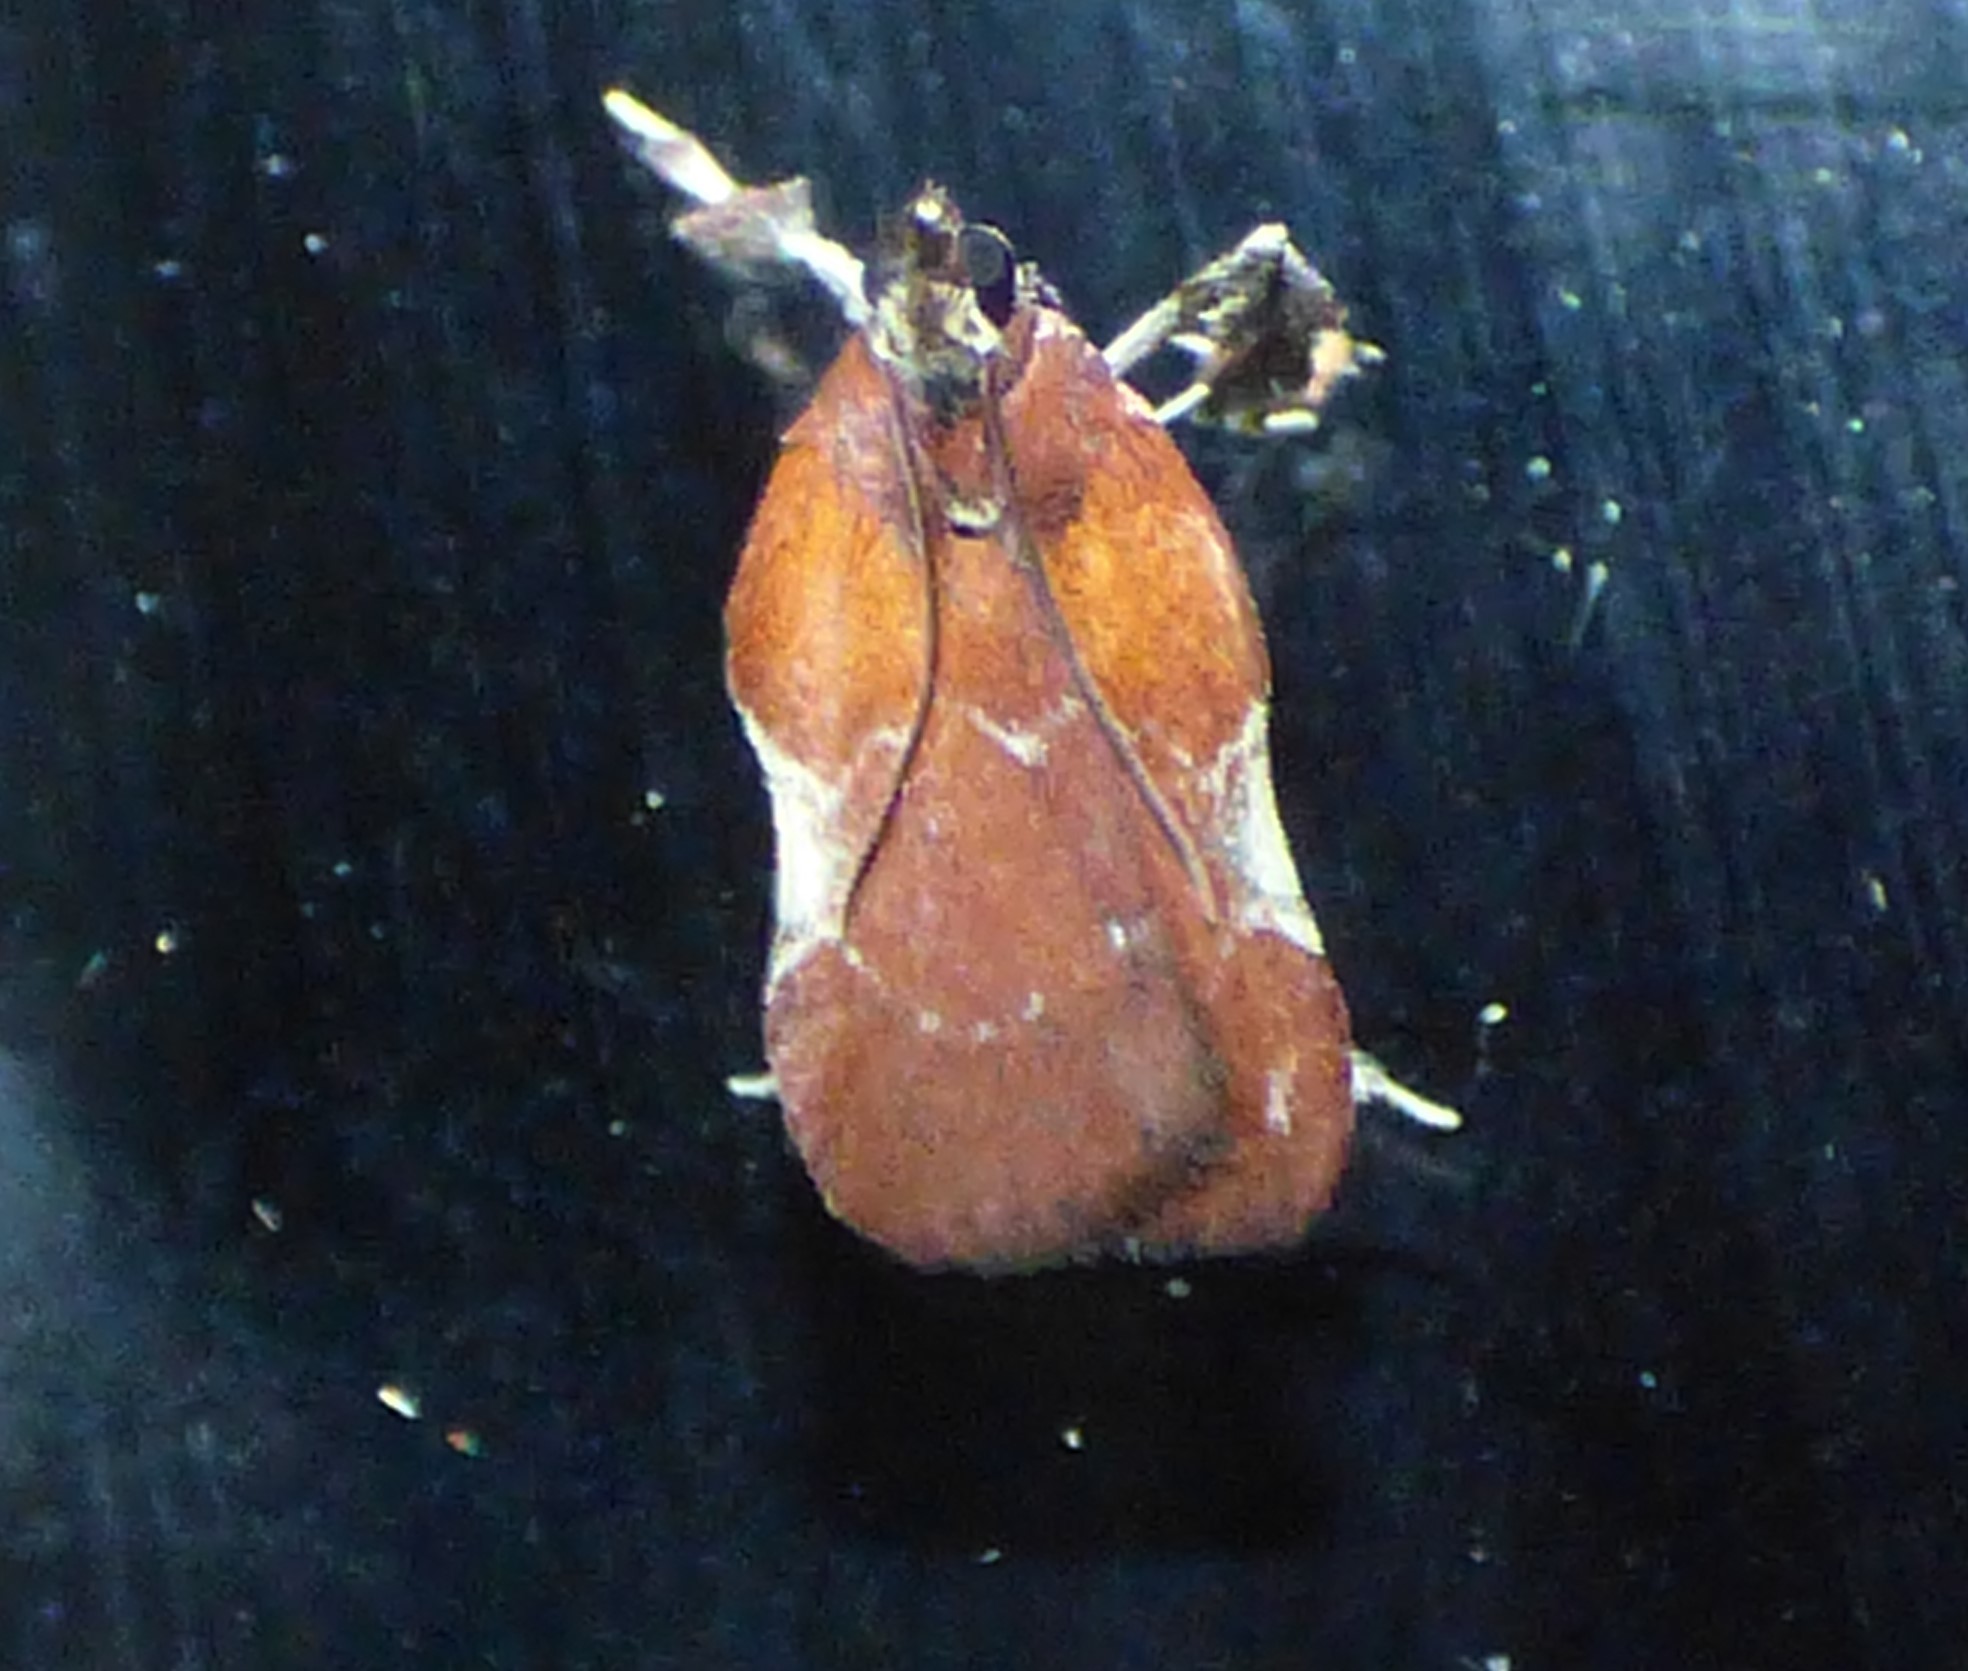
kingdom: Animalia
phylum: Arthropoda
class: Insecta
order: Lepidoptera
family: Pyralidae
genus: Galasa
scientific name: Galasa nigrinodis
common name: Boxwood leaftier moth
